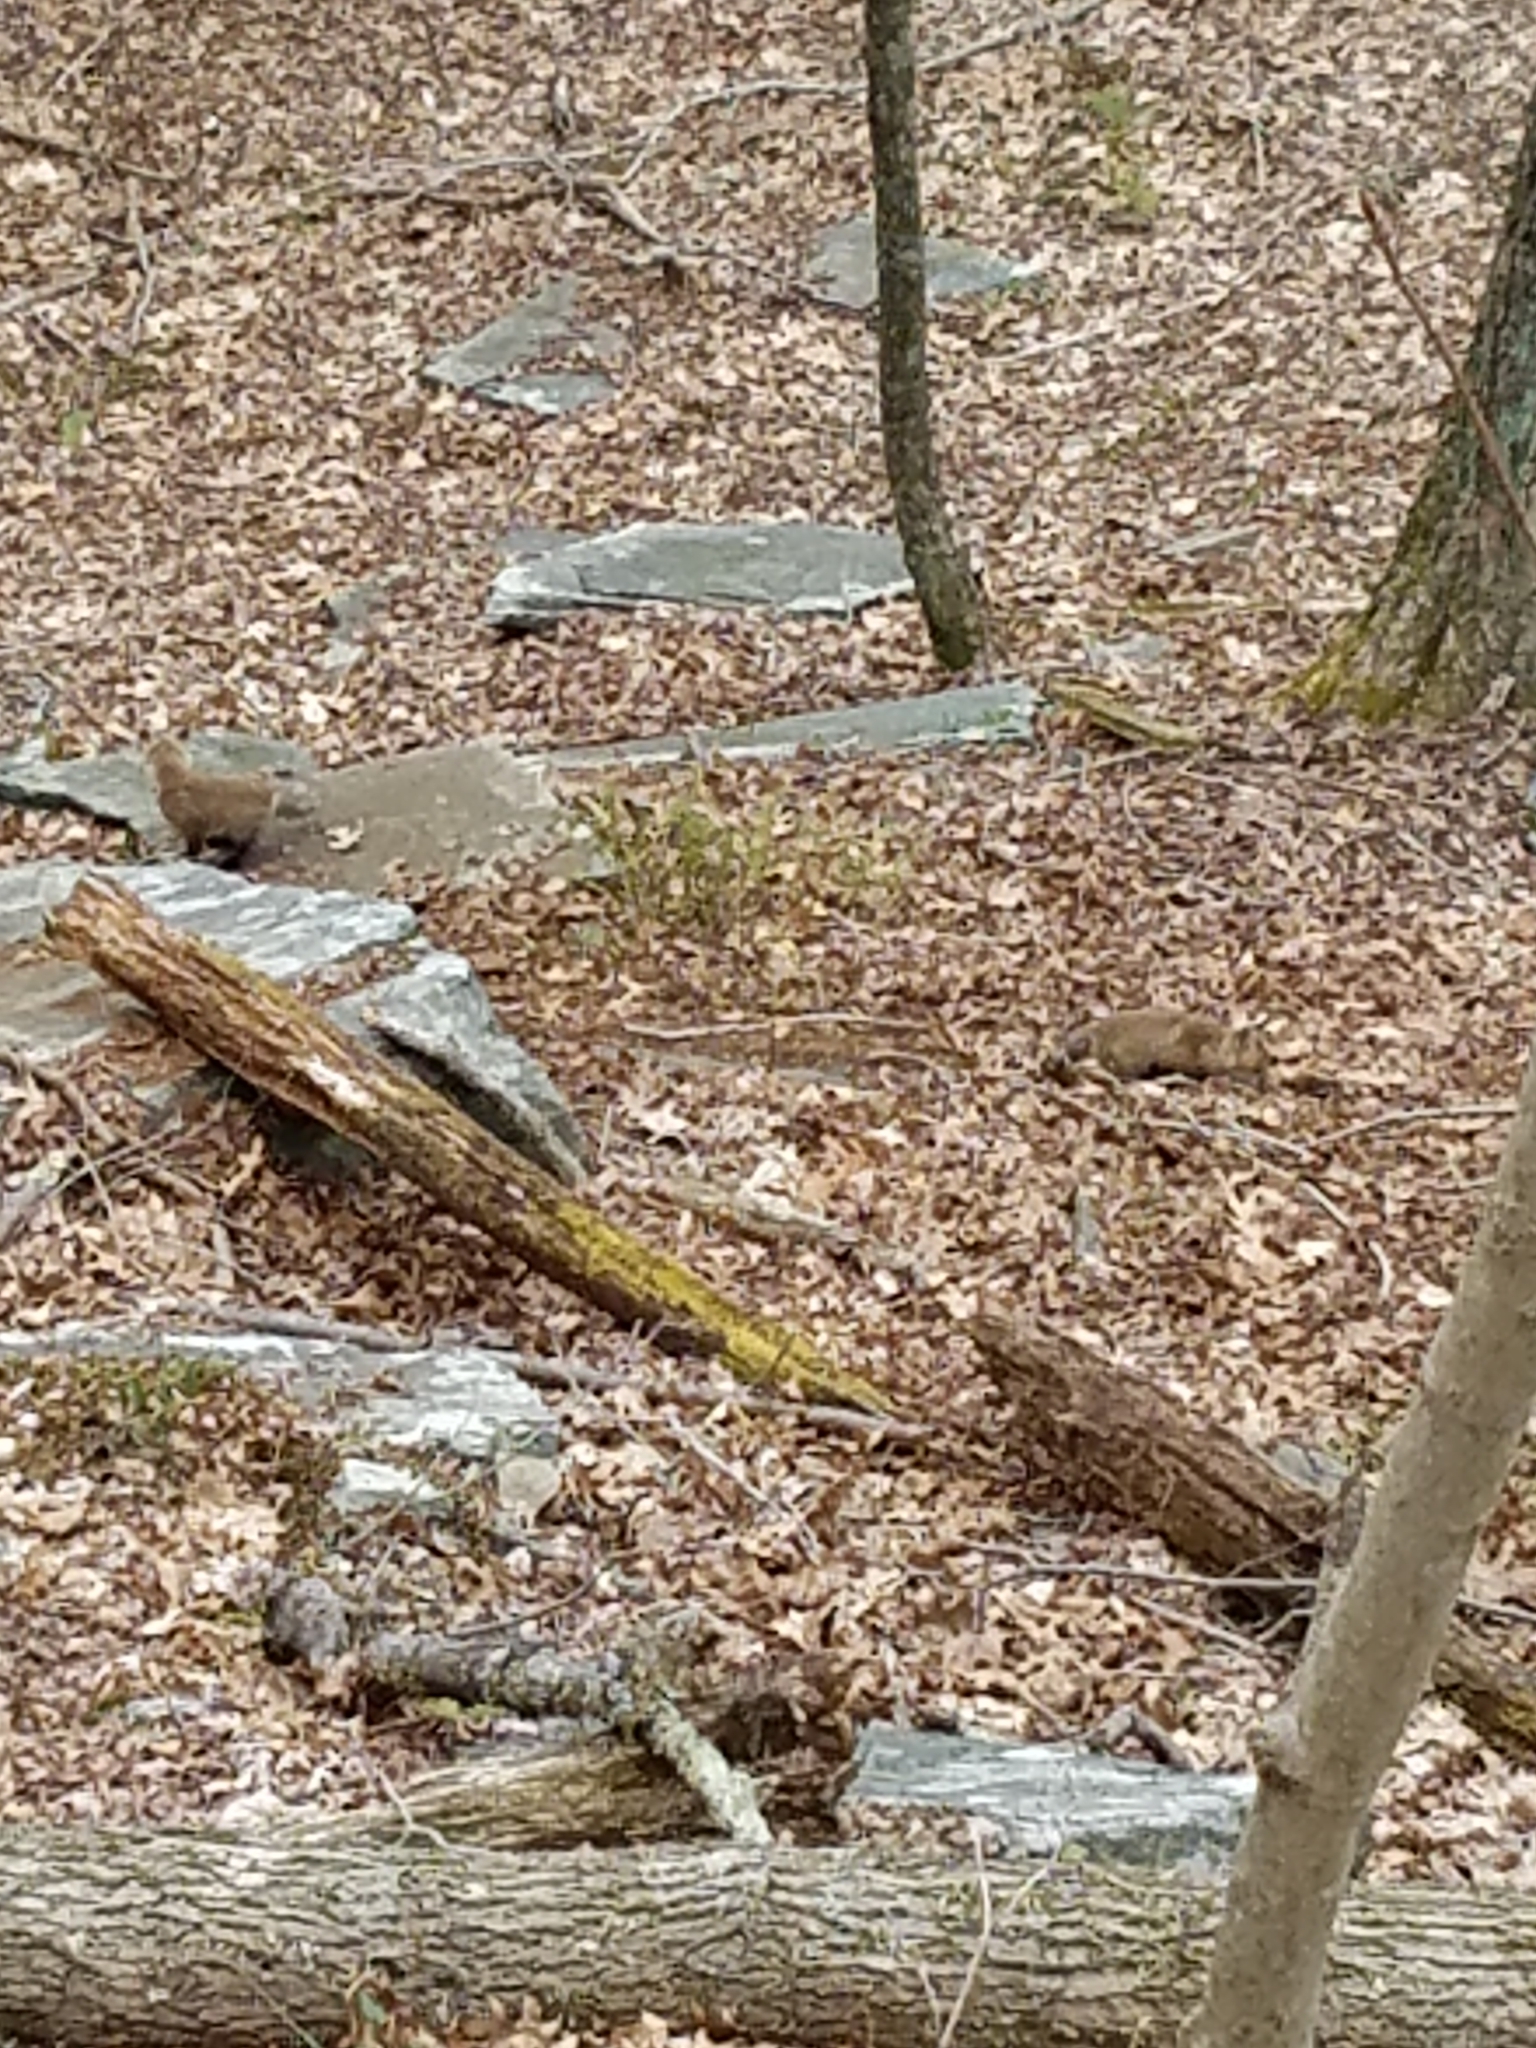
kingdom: Animalia
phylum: Chordata
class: Mammalia
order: Carnivora
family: Canidae
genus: Vulpes
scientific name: Vulpes vulpes
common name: Red fox
